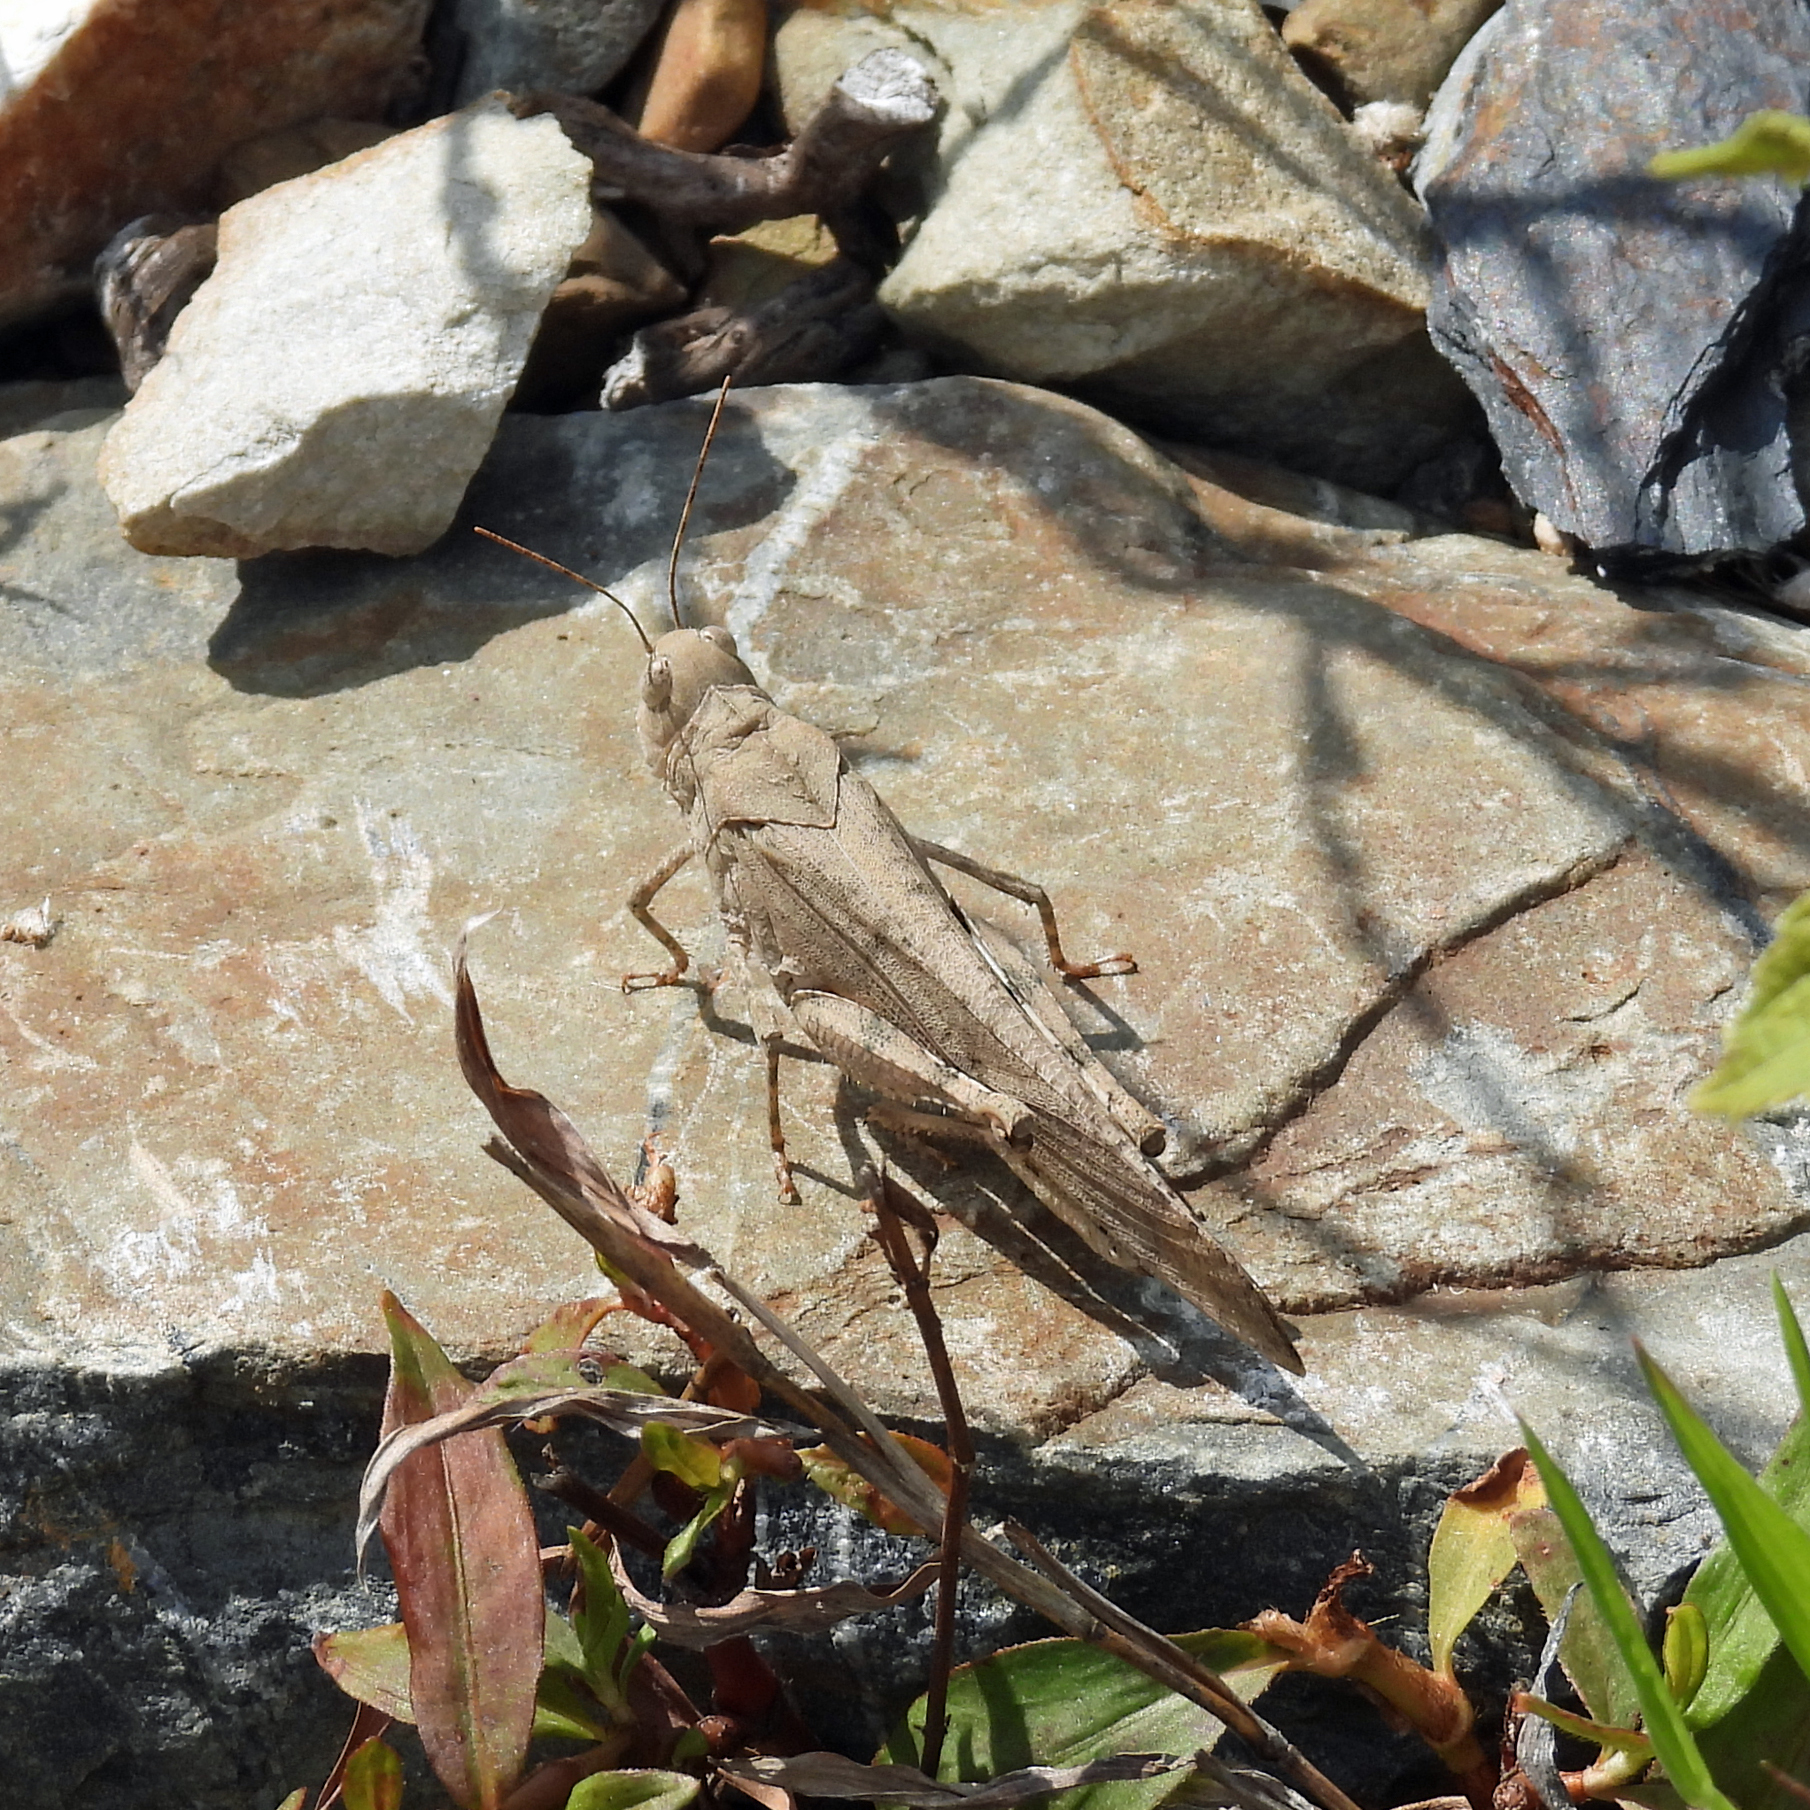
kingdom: Animalia
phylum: Arthropoda
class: Insecta
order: Orthoptera
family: Acrididae
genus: Dissosteira
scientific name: Dissosteira carolina
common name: Carolina grasshopper
